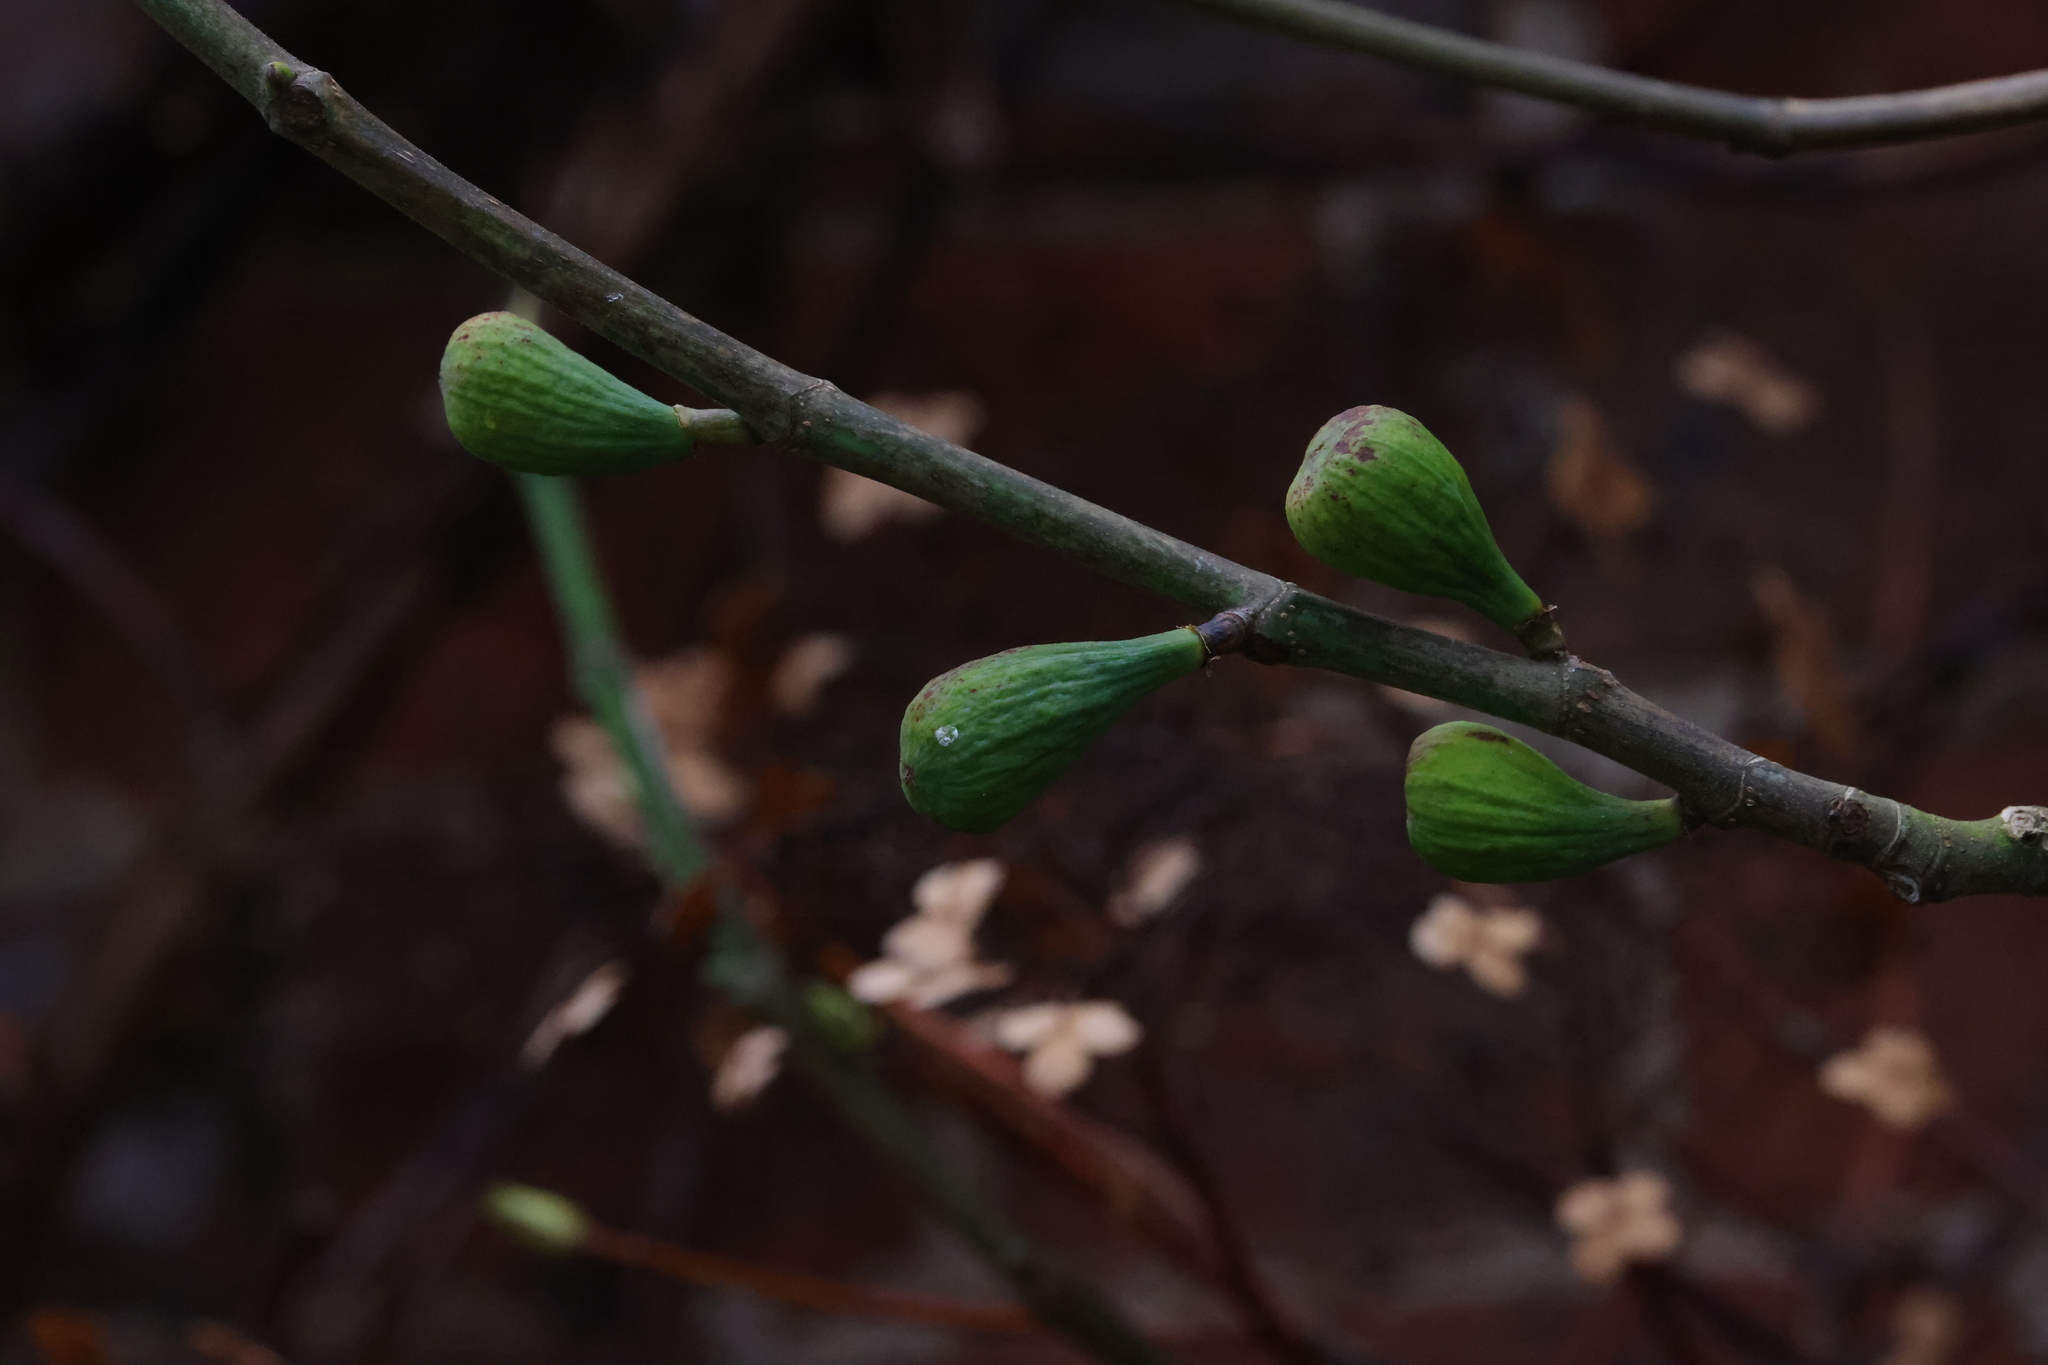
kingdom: Plantae
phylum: Tracheophyta
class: Magnoliopsida
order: Rosales
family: Moraceae
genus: Ficus
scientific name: Ficus carica
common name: Fig
